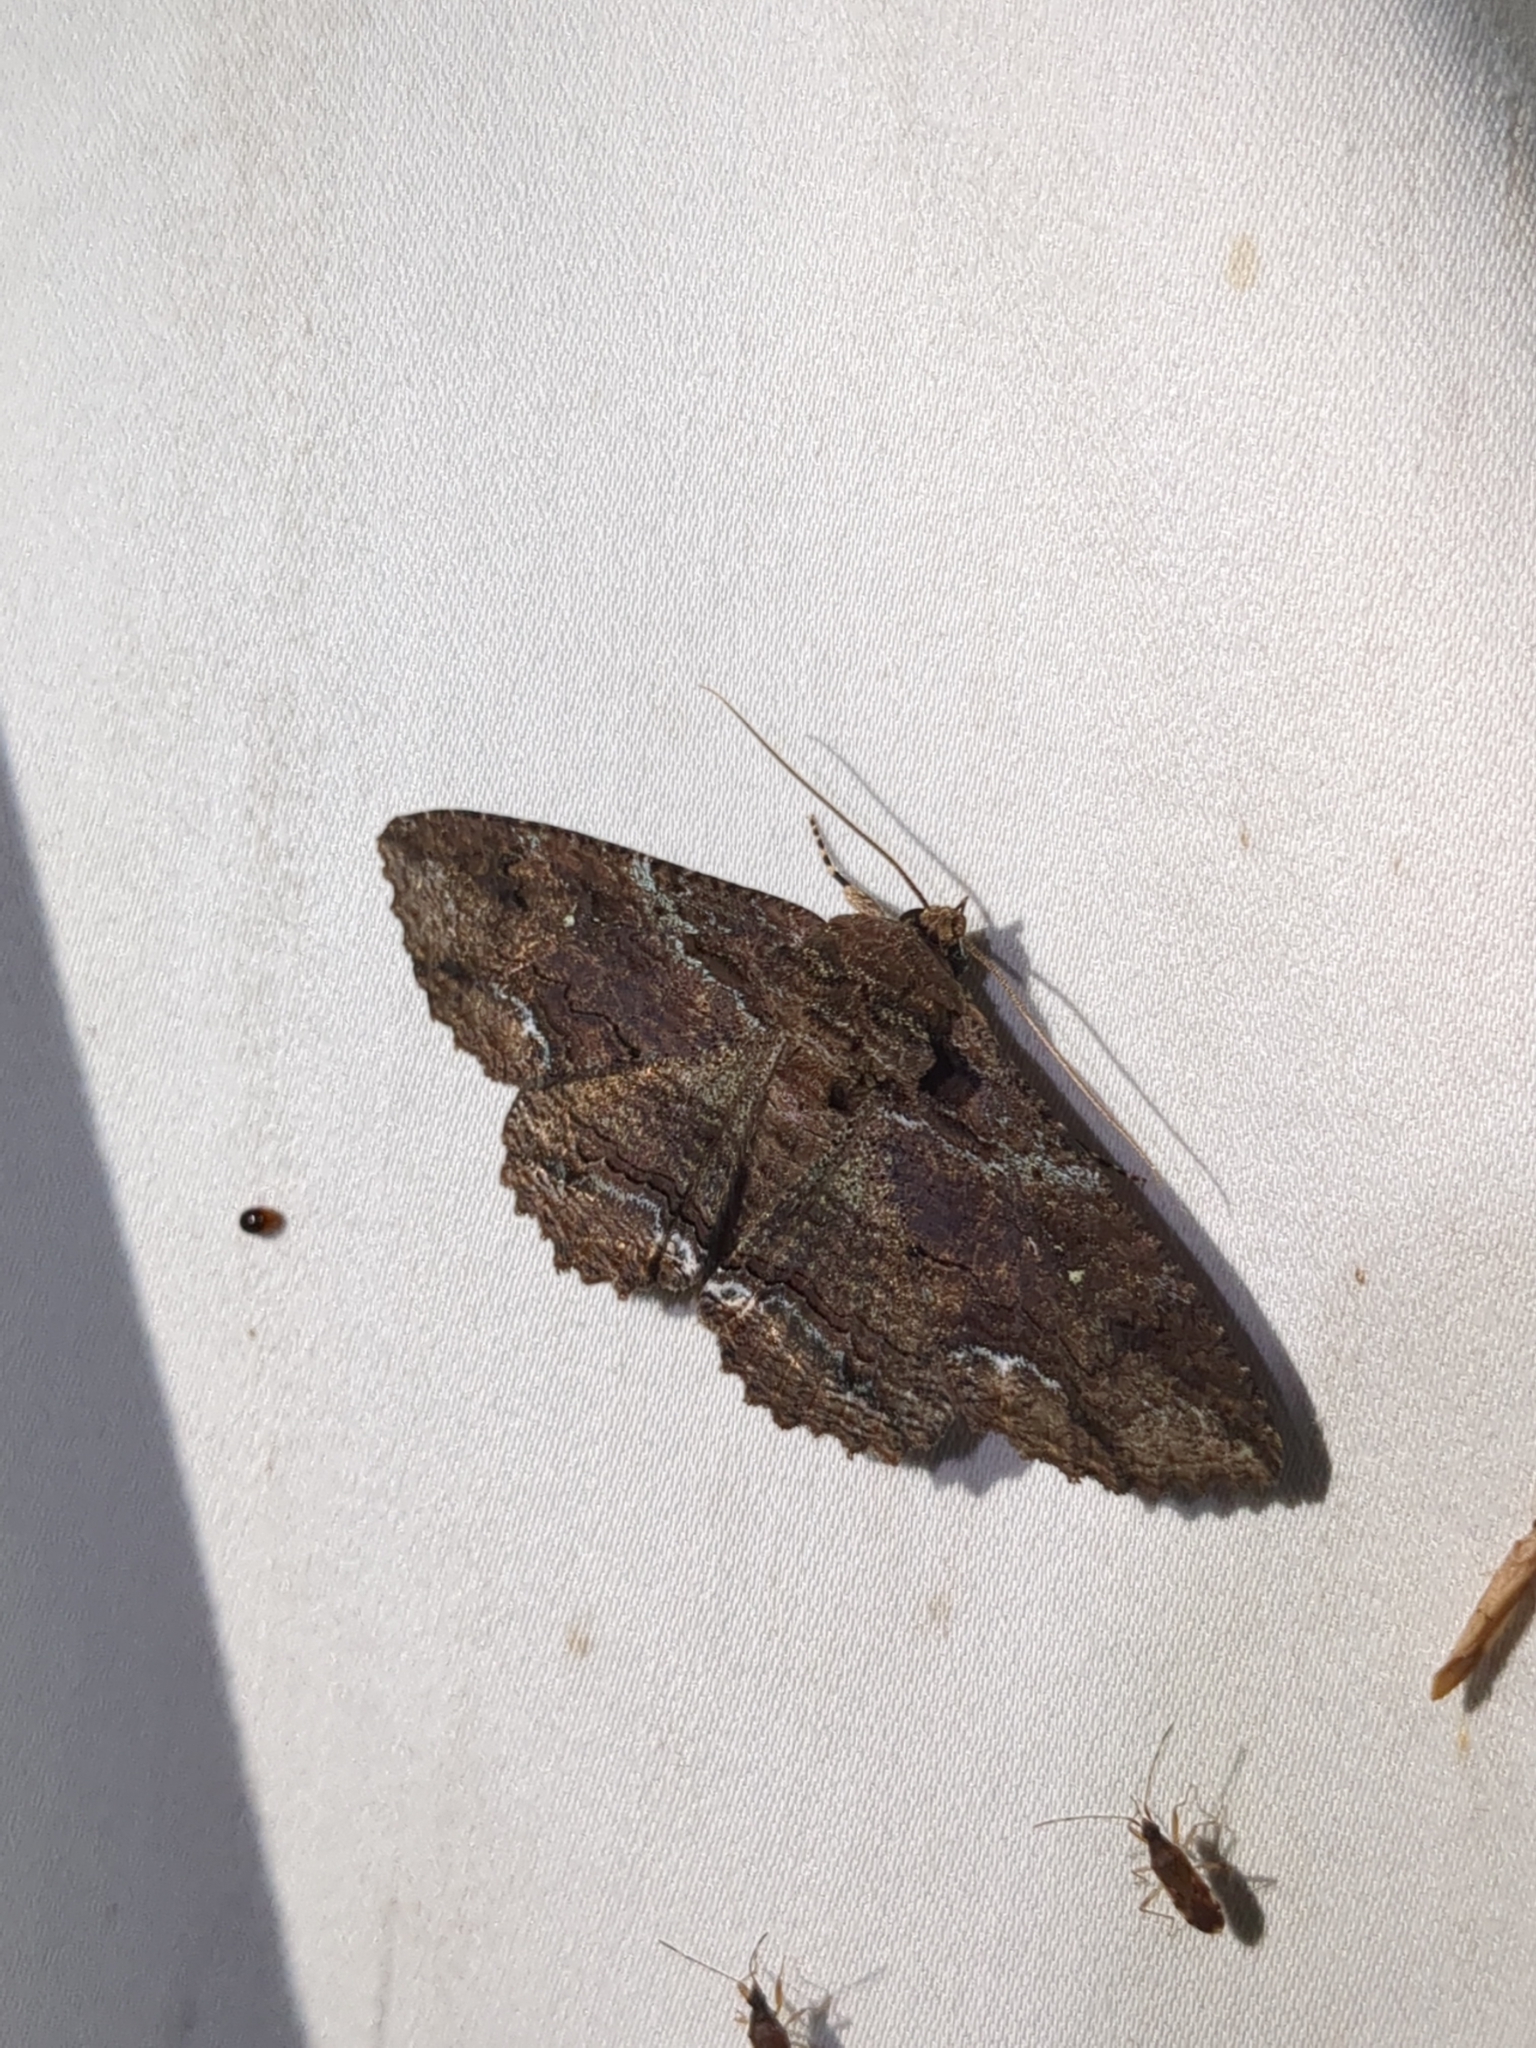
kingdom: Animalia
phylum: Arthropoda
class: Insecta
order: Lepidoptera
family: Erebidae
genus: Zale
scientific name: Zale lunata
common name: Lunate zale moth
